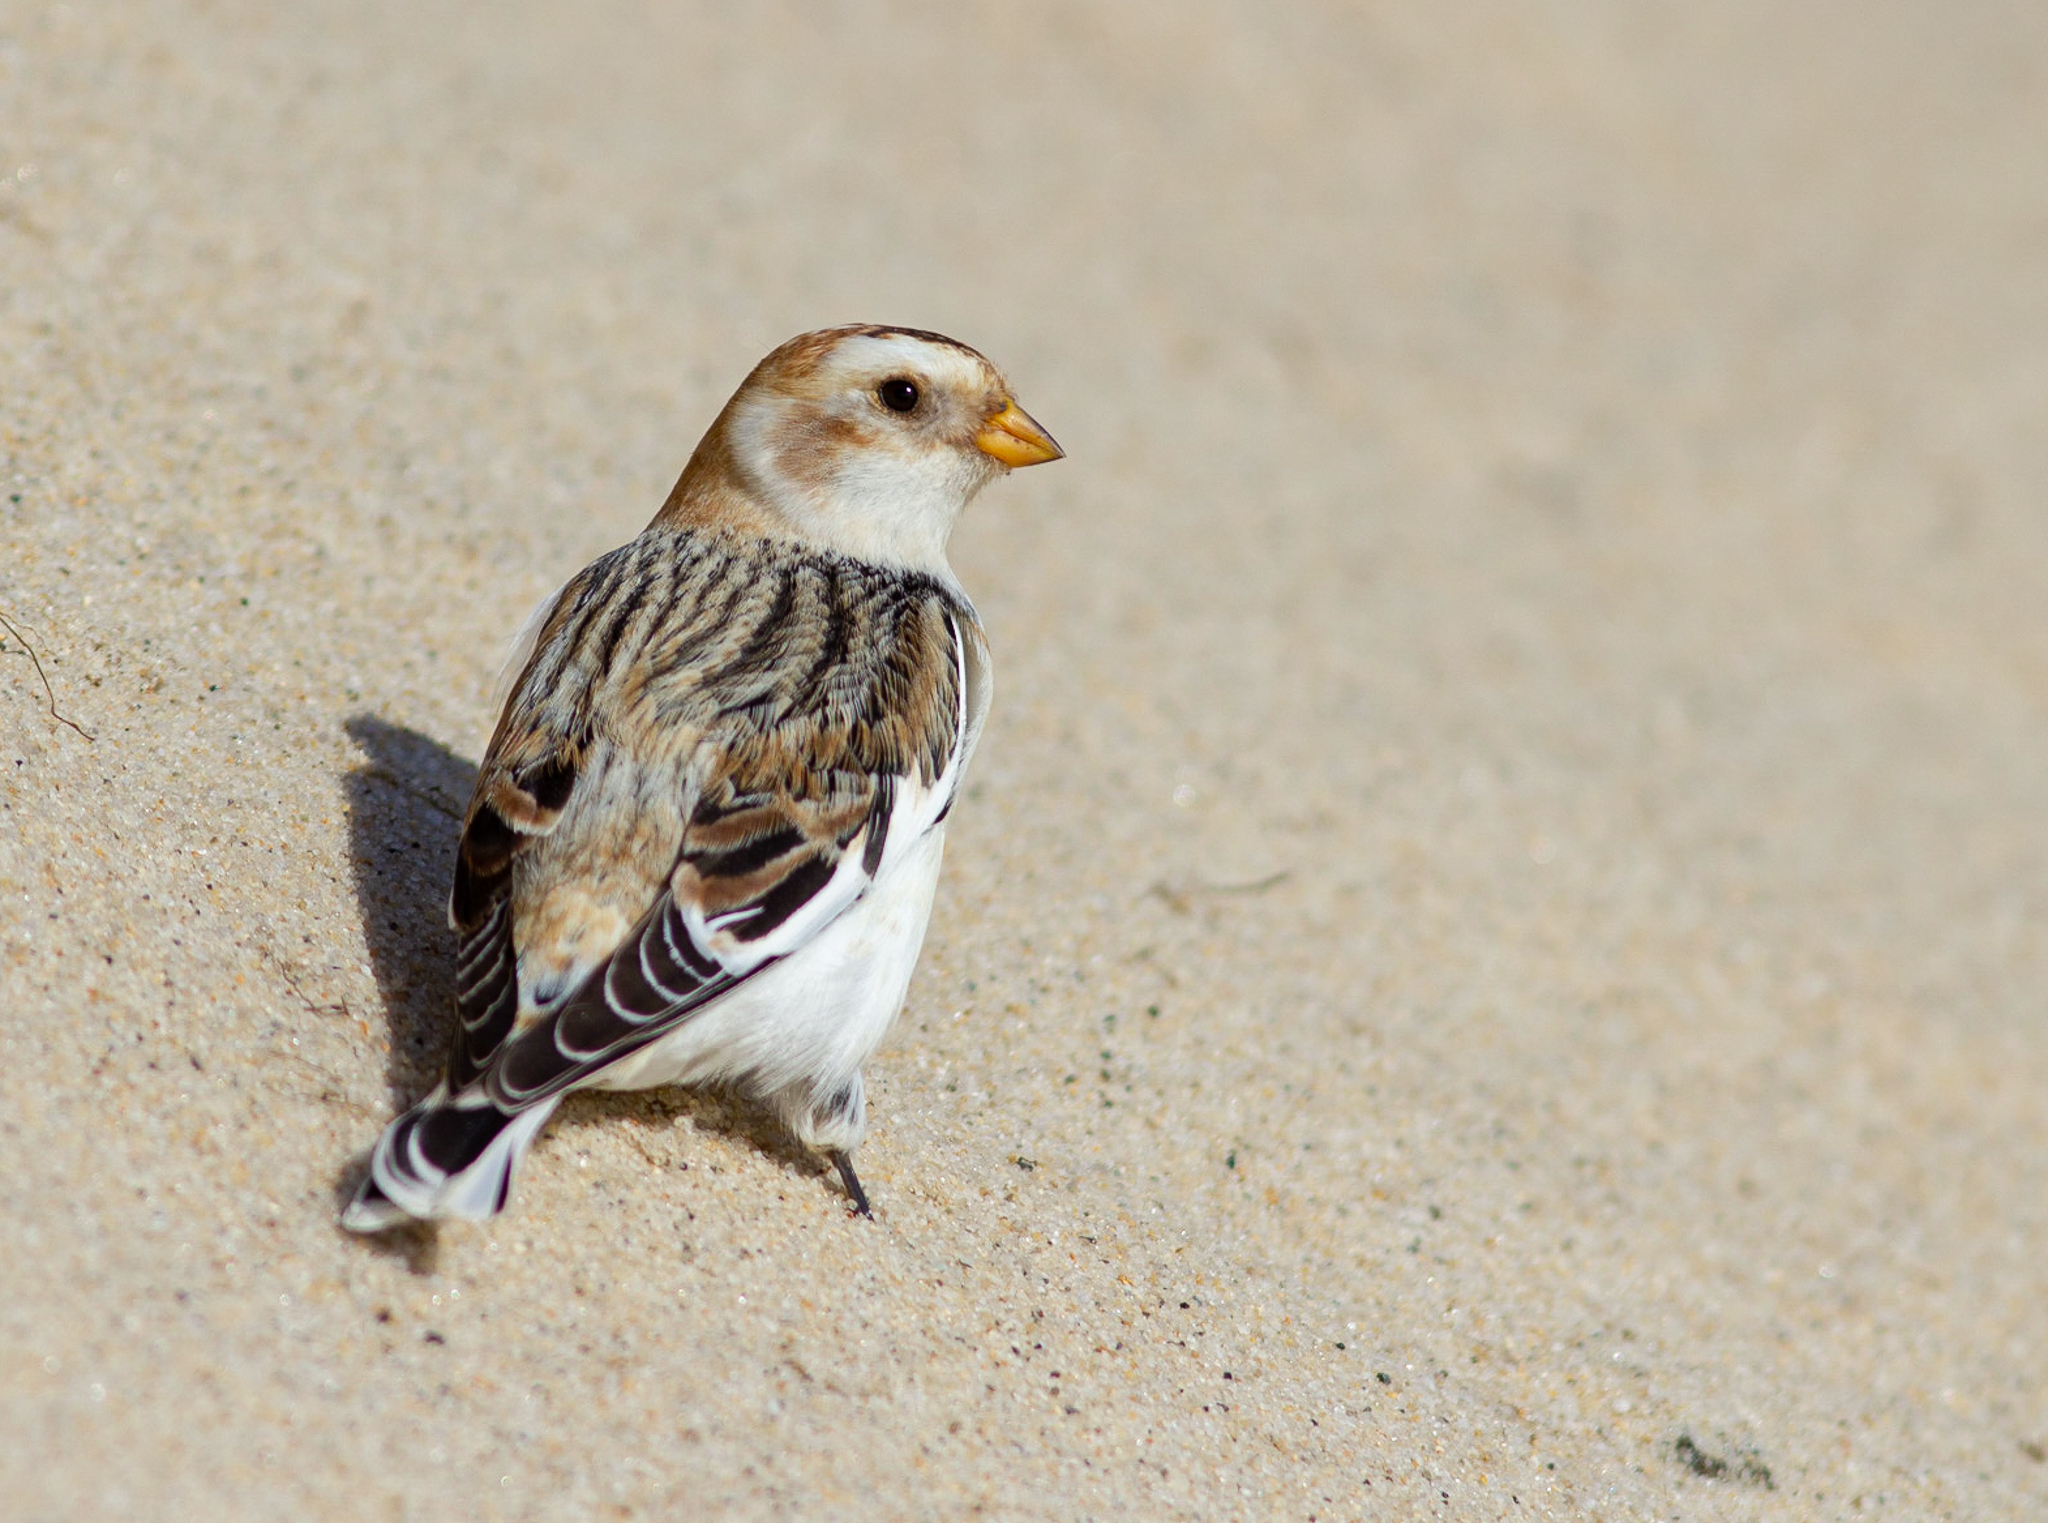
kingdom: Animalia
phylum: Chordata
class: Aves
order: Passeriformes
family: Calcariidae
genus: Plectrophenax
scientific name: Plectrophenax nivalis
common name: Snow bunting
